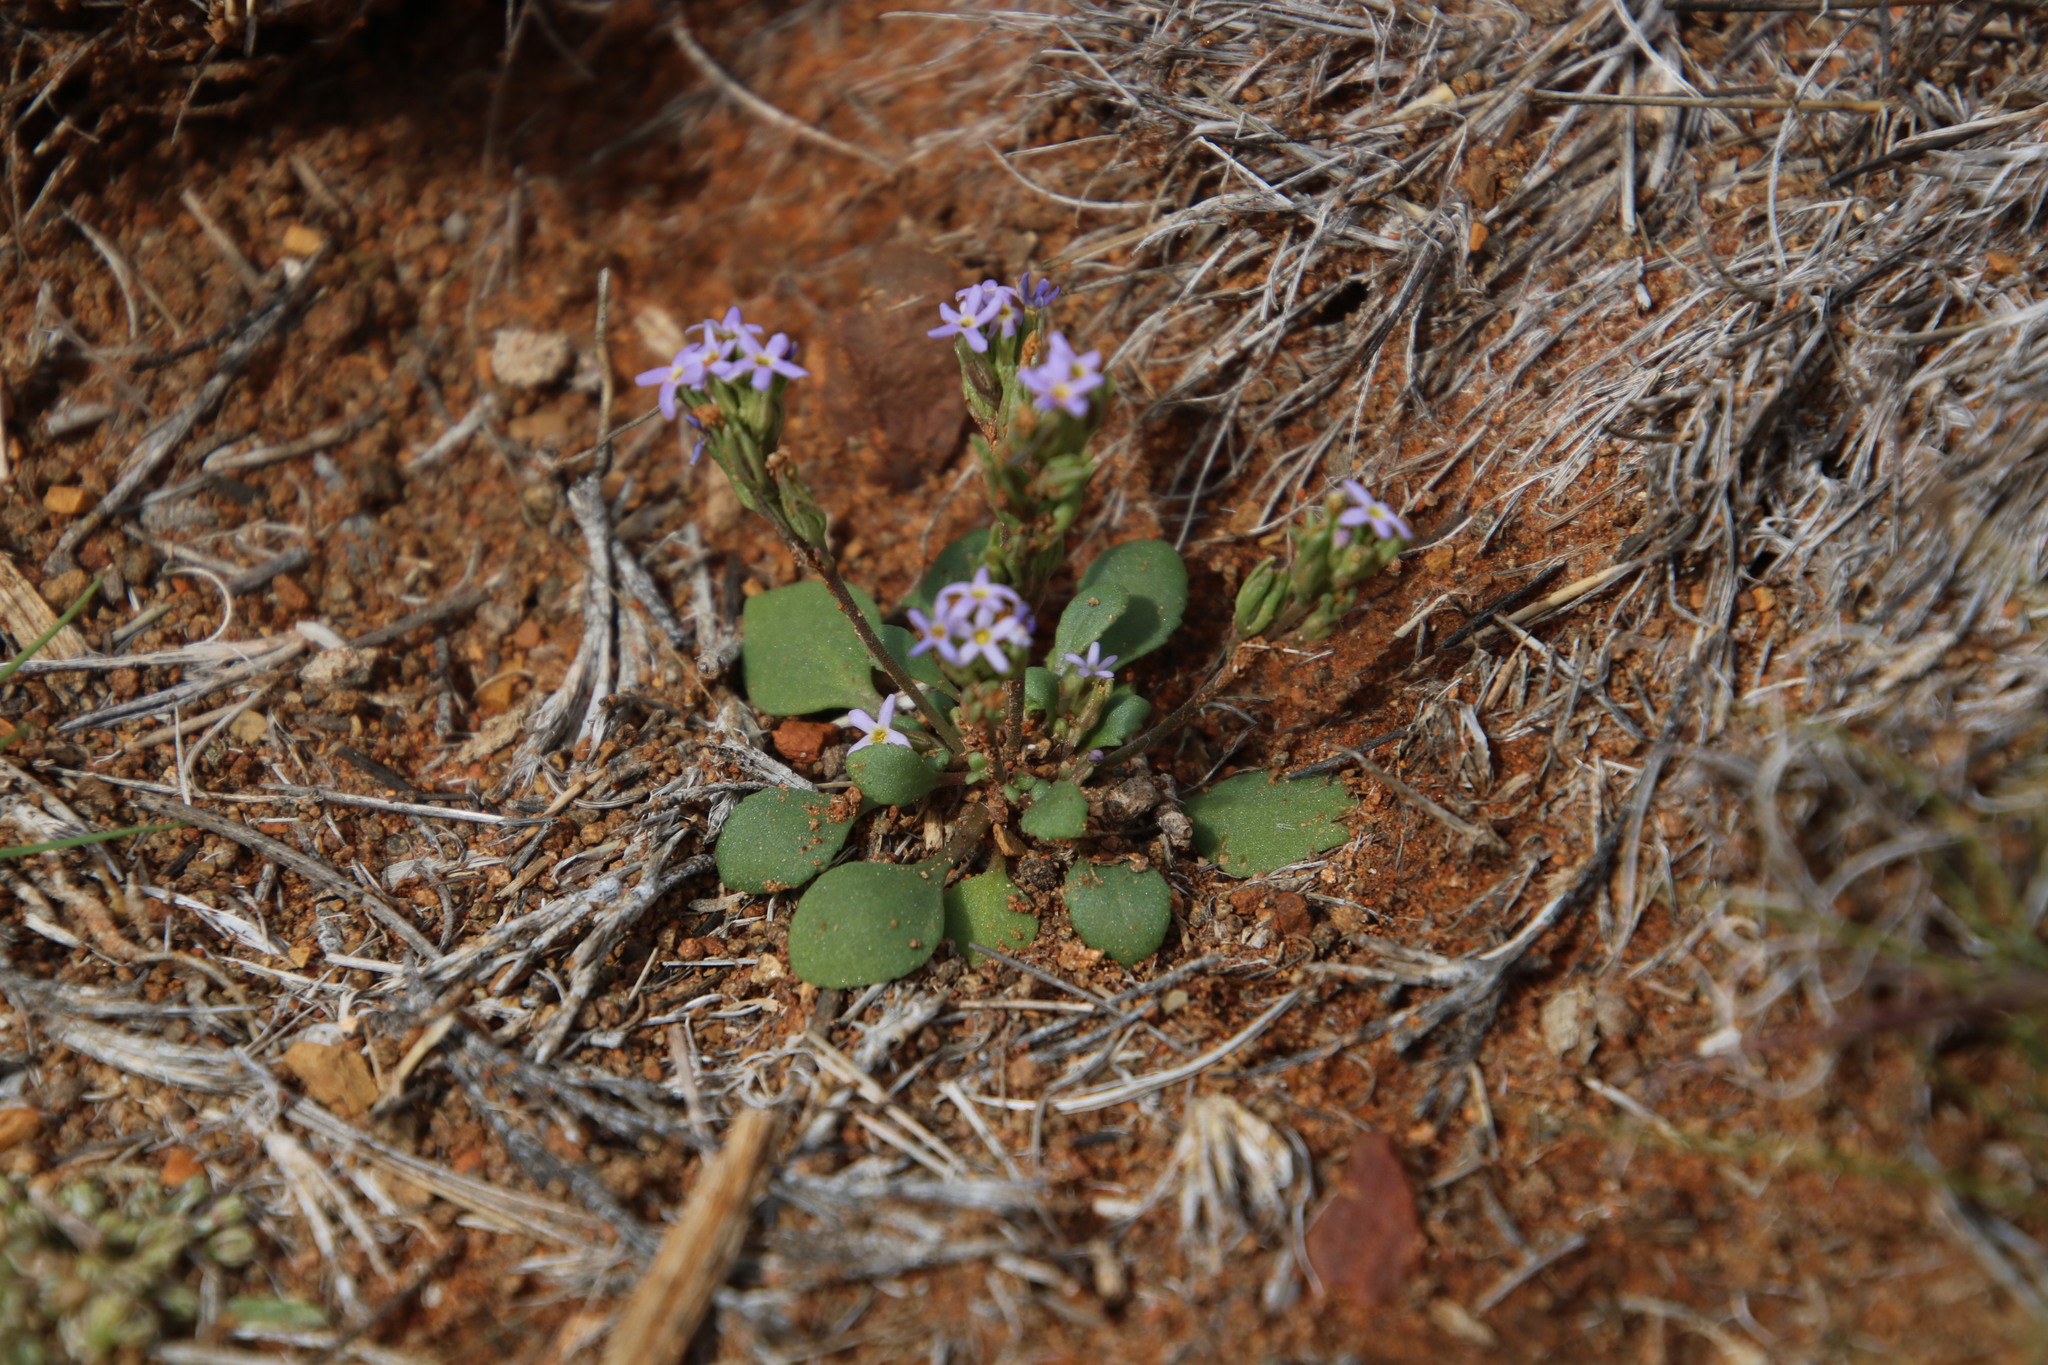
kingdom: Plantae
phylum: Tracheophyta
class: Magnoliopsida
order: Lamiales
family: Scrophulariaceae
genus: Manulea
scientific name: Manulea fragrans
